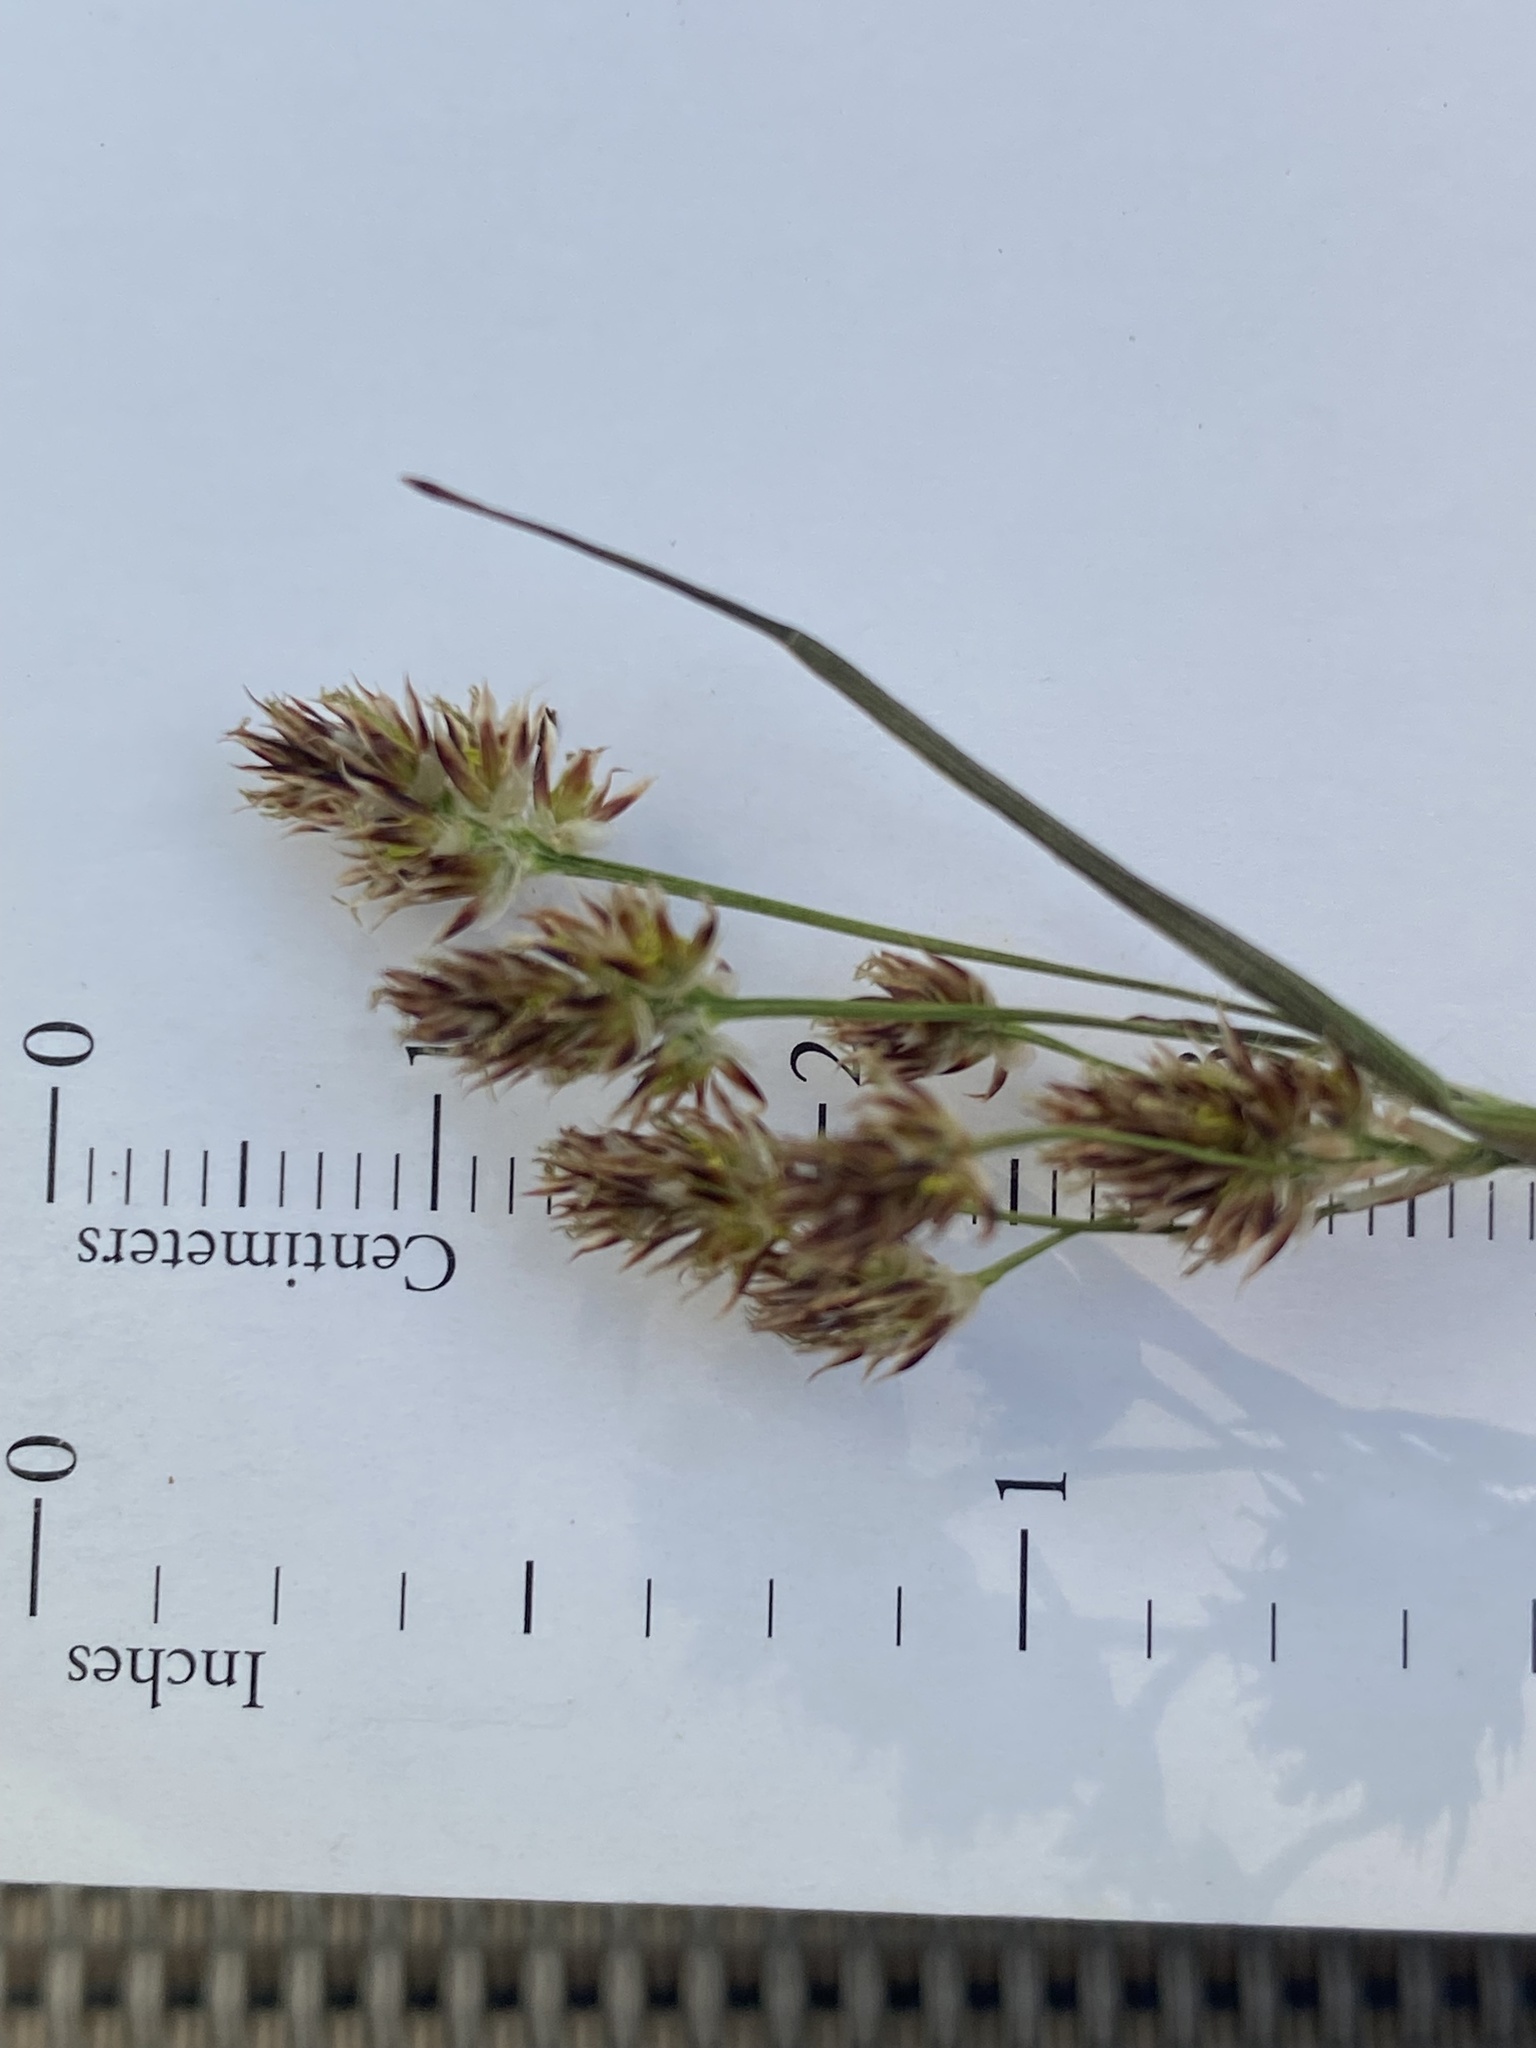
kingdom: Plantae
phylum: Tracheophyta
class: Liliopsida
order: Poales
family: Juncaceae
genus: Luzula
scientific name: Luzula multiflora
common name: Heath wood-rush
